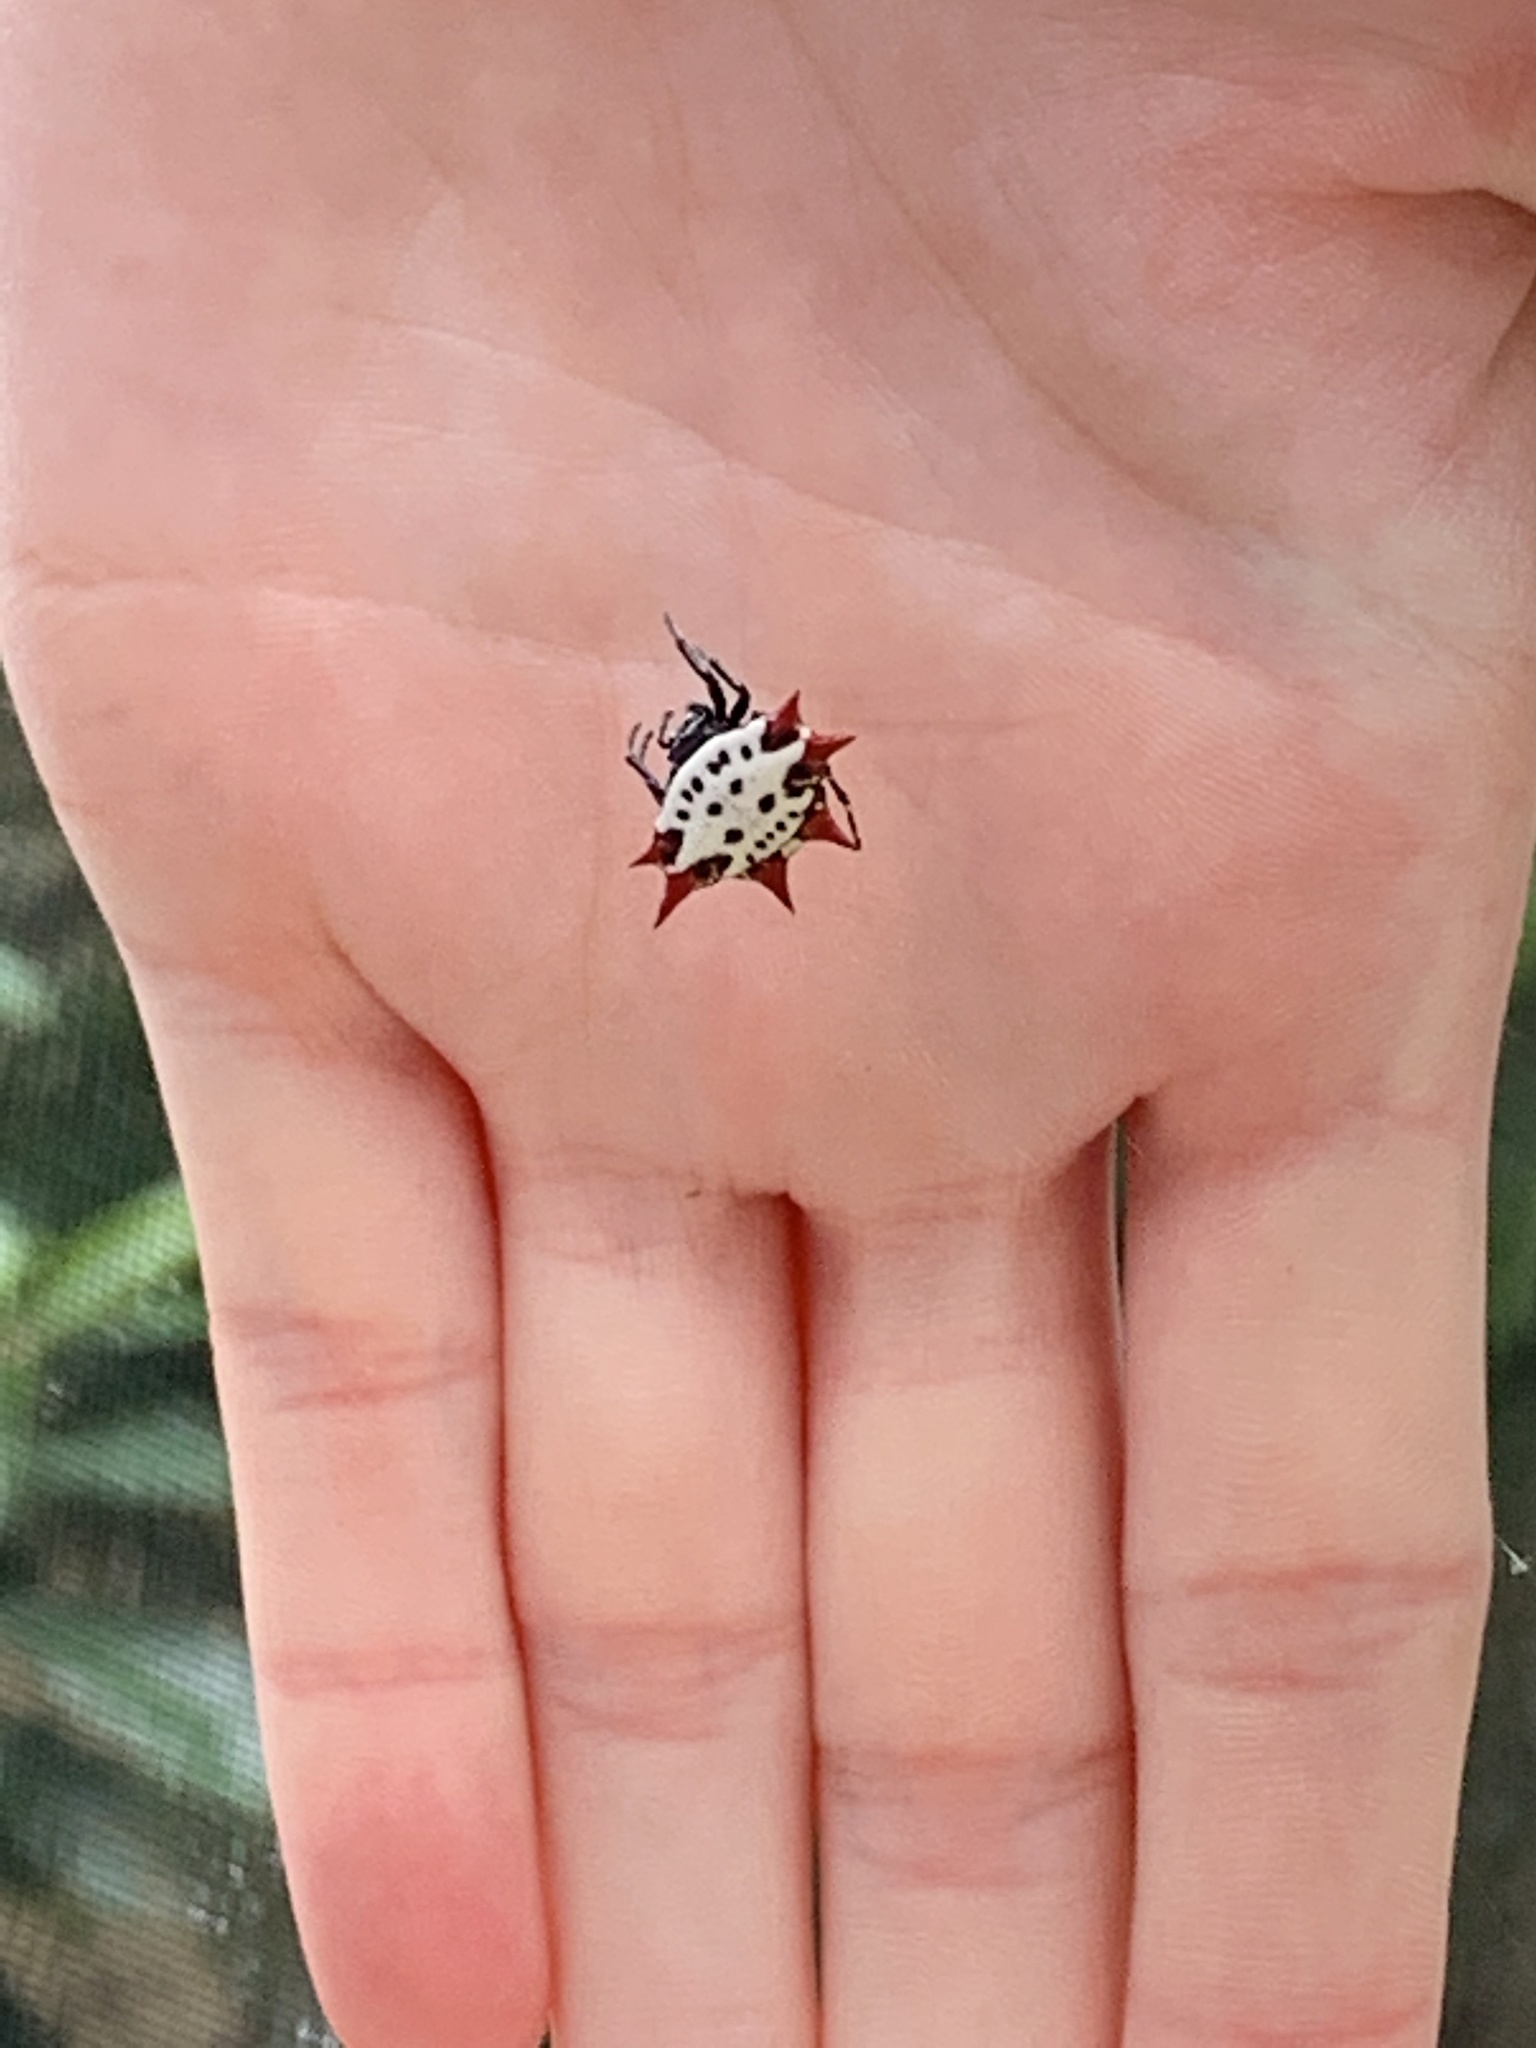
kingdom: Animalia
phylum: Arthropoda
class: Arachnida
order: Araneae
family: Araneidae
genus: Gasteracantha
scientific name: Gasteracantha cancriformis
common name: Orb weavers
